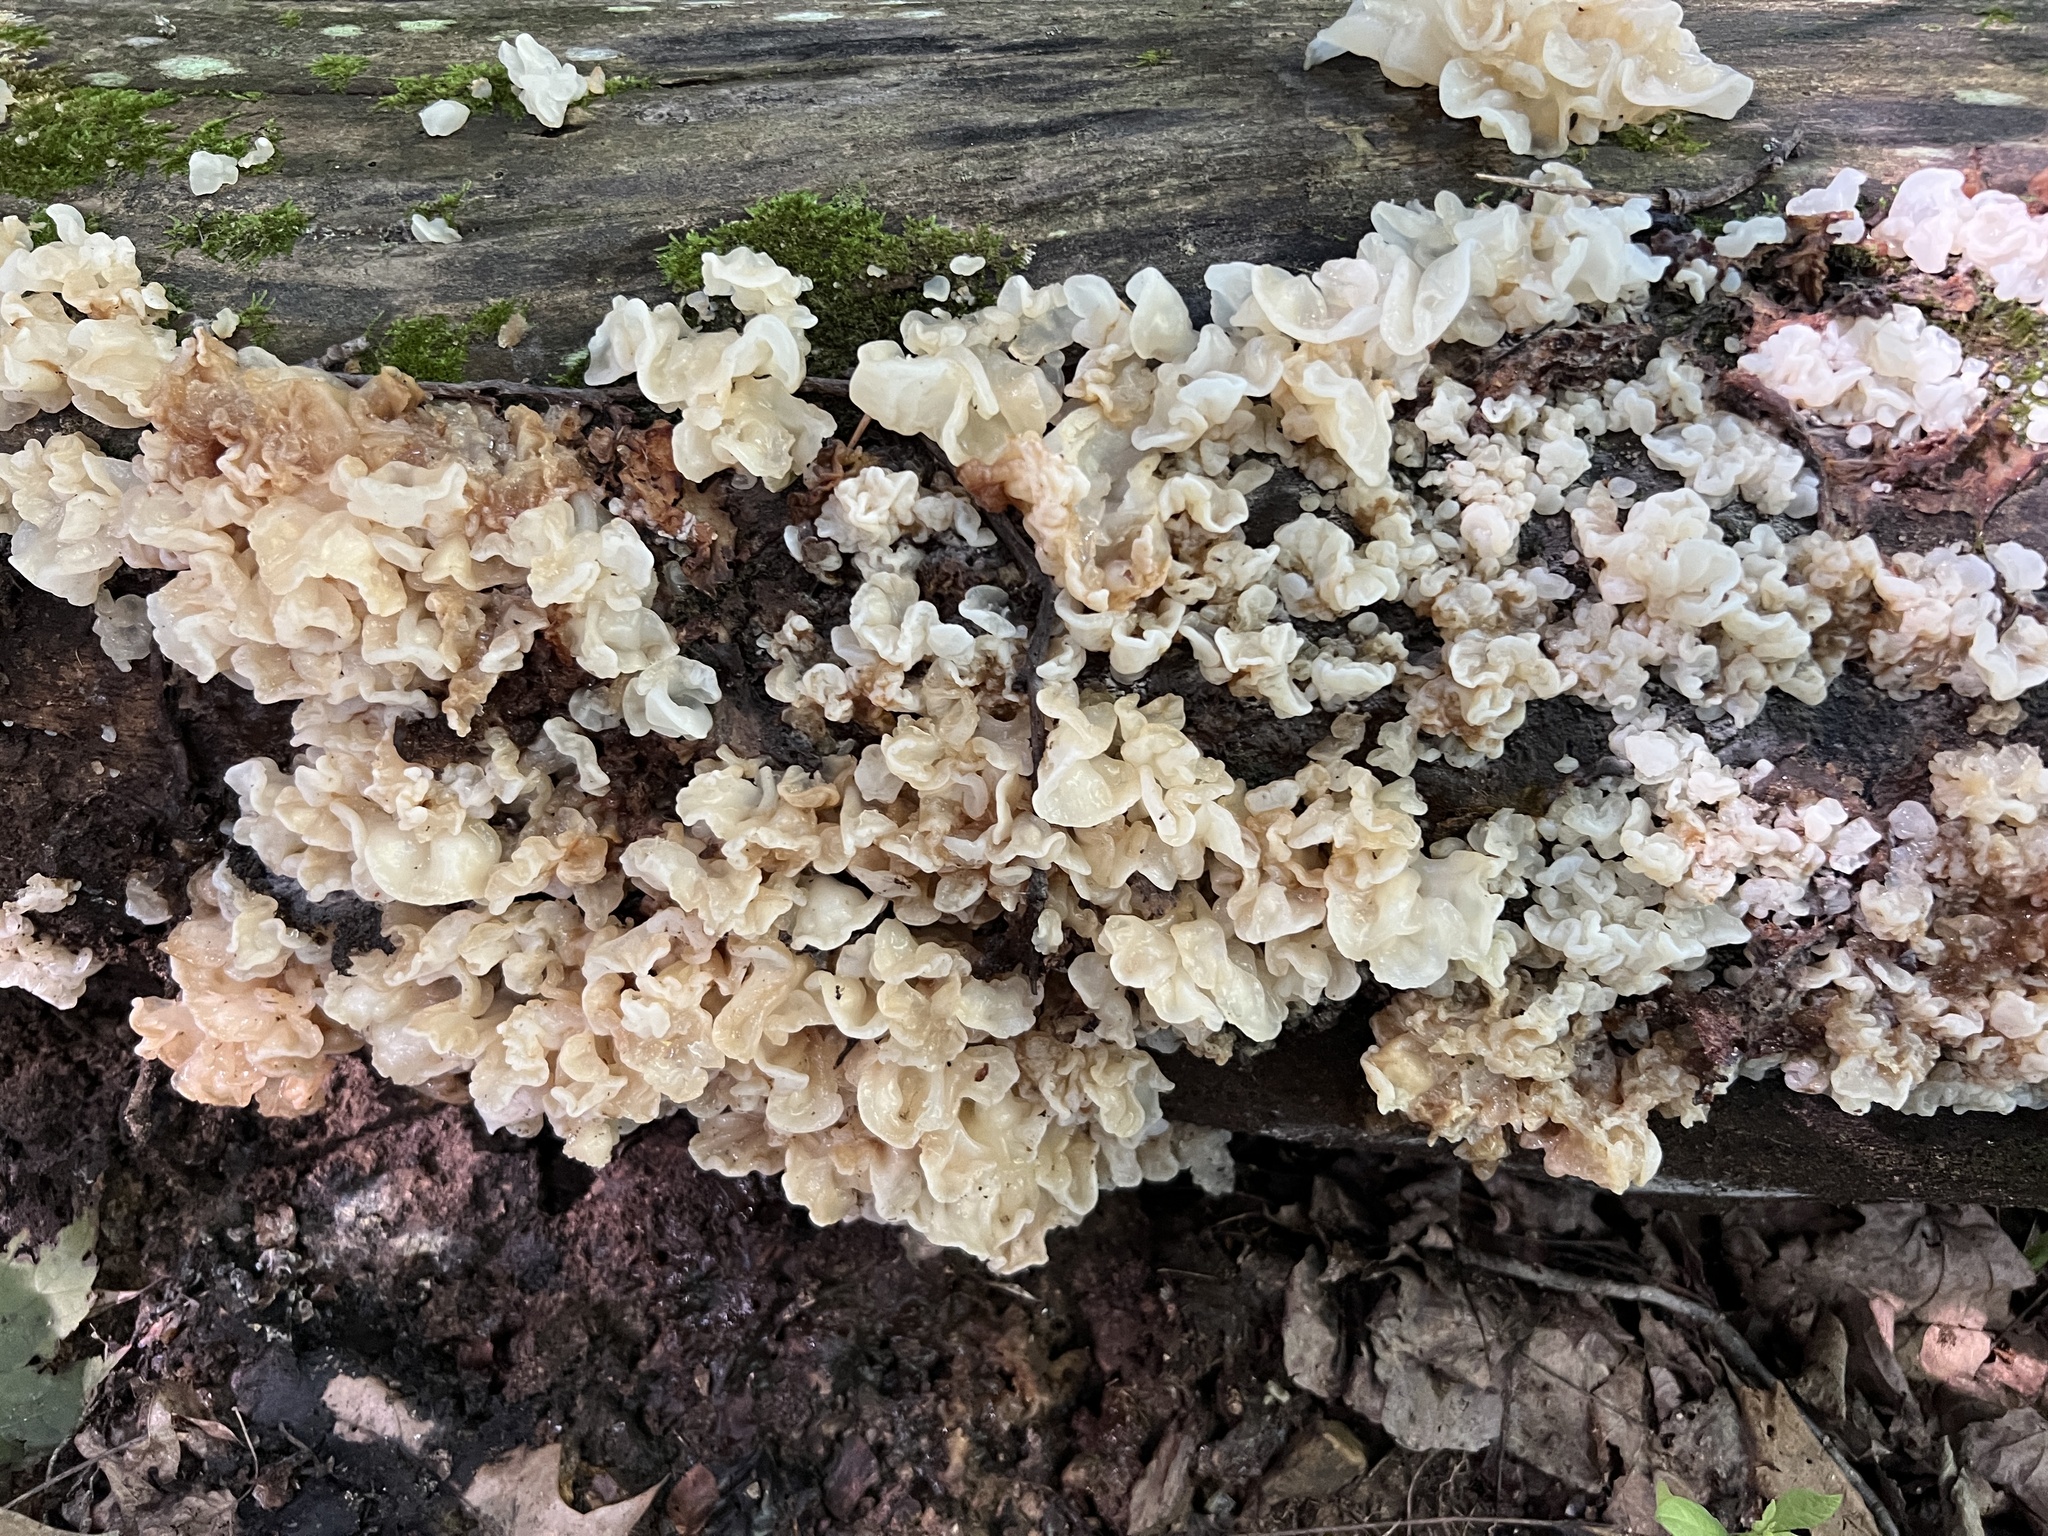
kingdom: Fungi
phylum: Basidiomycota
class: Agaricomycetes
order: Auriculariales
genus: Ductifera
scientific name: Ductifera pululahuana
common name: White jelly fungus
